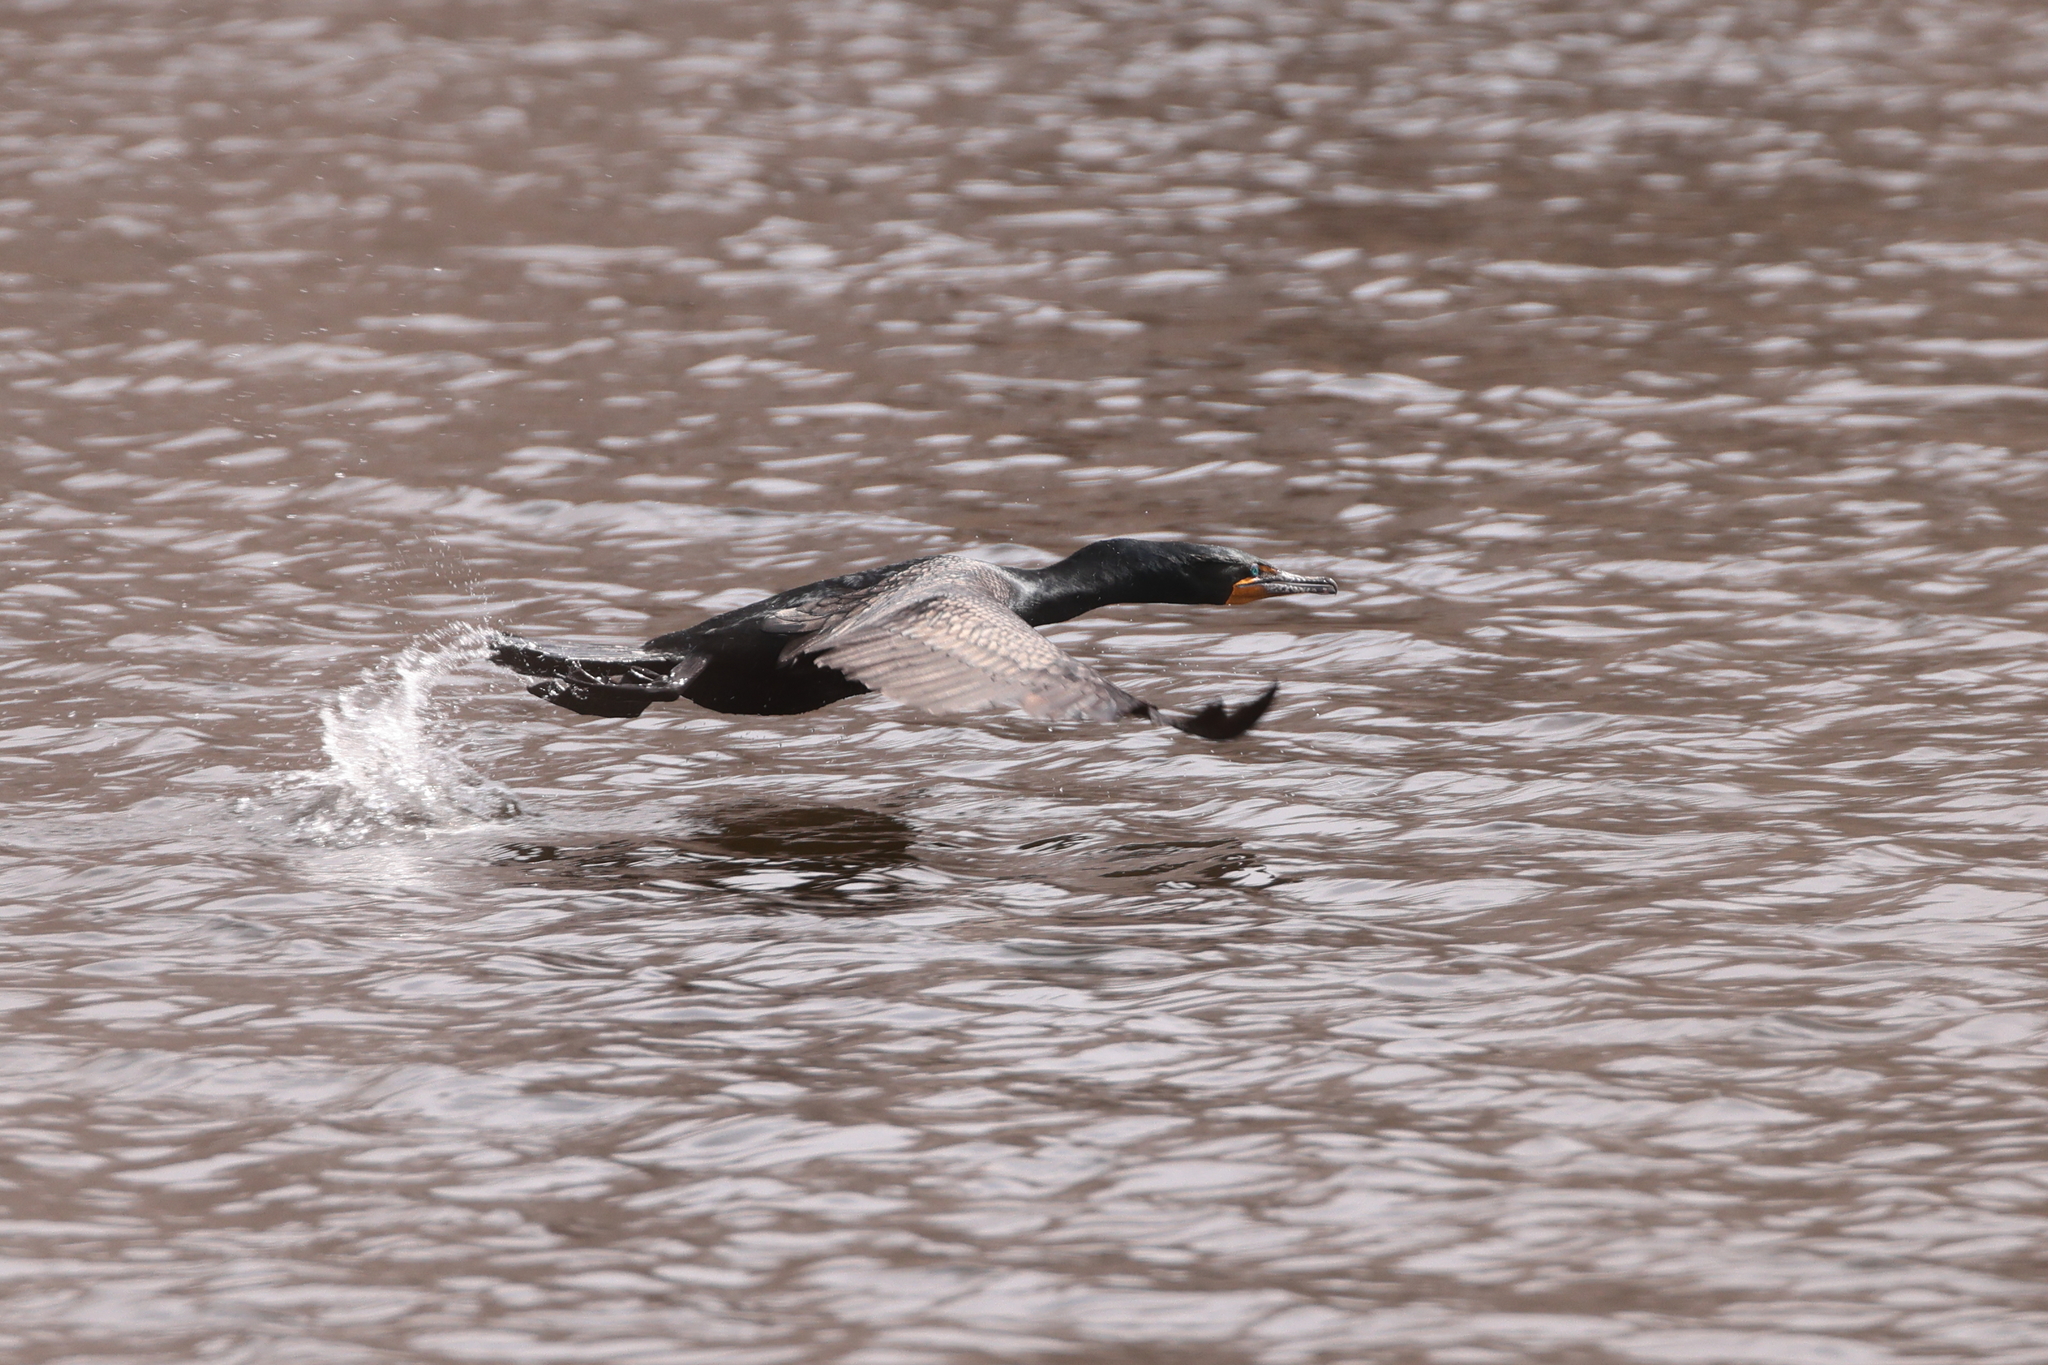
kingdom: Animalia
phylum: Chordata
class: Aves
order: Suliformes
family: Phalacrocoracidae
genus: Phalacrocorax
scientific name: Phalacrocorax auritus
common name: Double-crested cormorant
